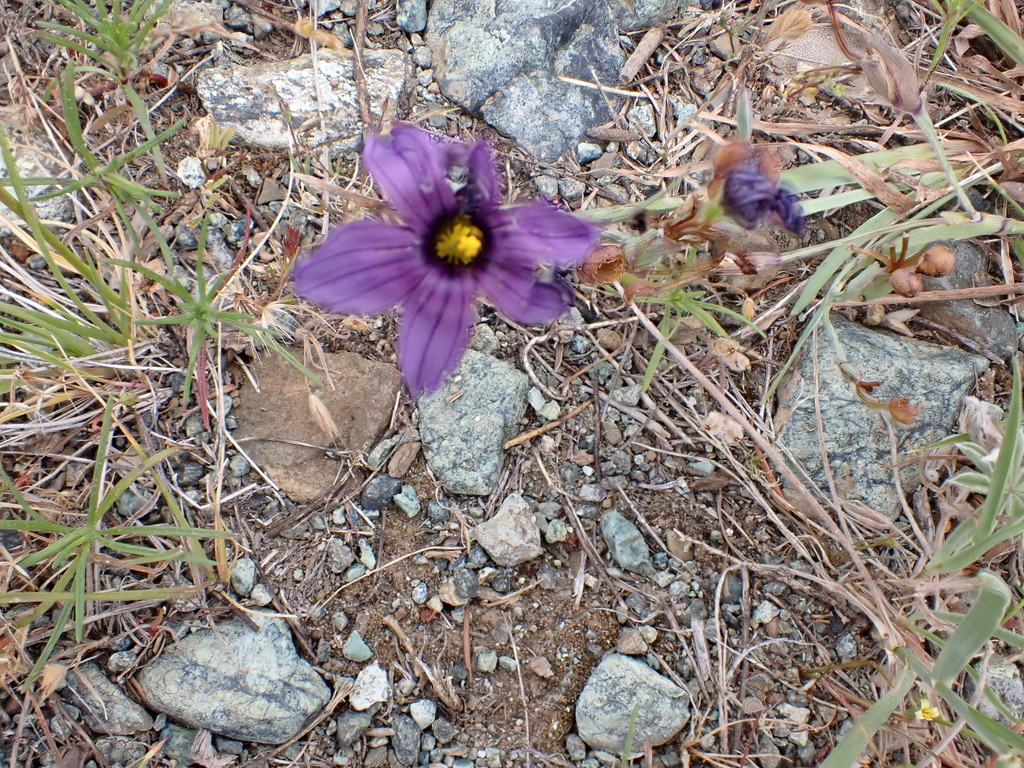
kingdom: Plantae
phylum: Tracheophyta
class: Liliopsida
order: Asparagales
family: Iridaceae
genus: Sisyrinchium
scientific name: Sisyrinchium bellum
